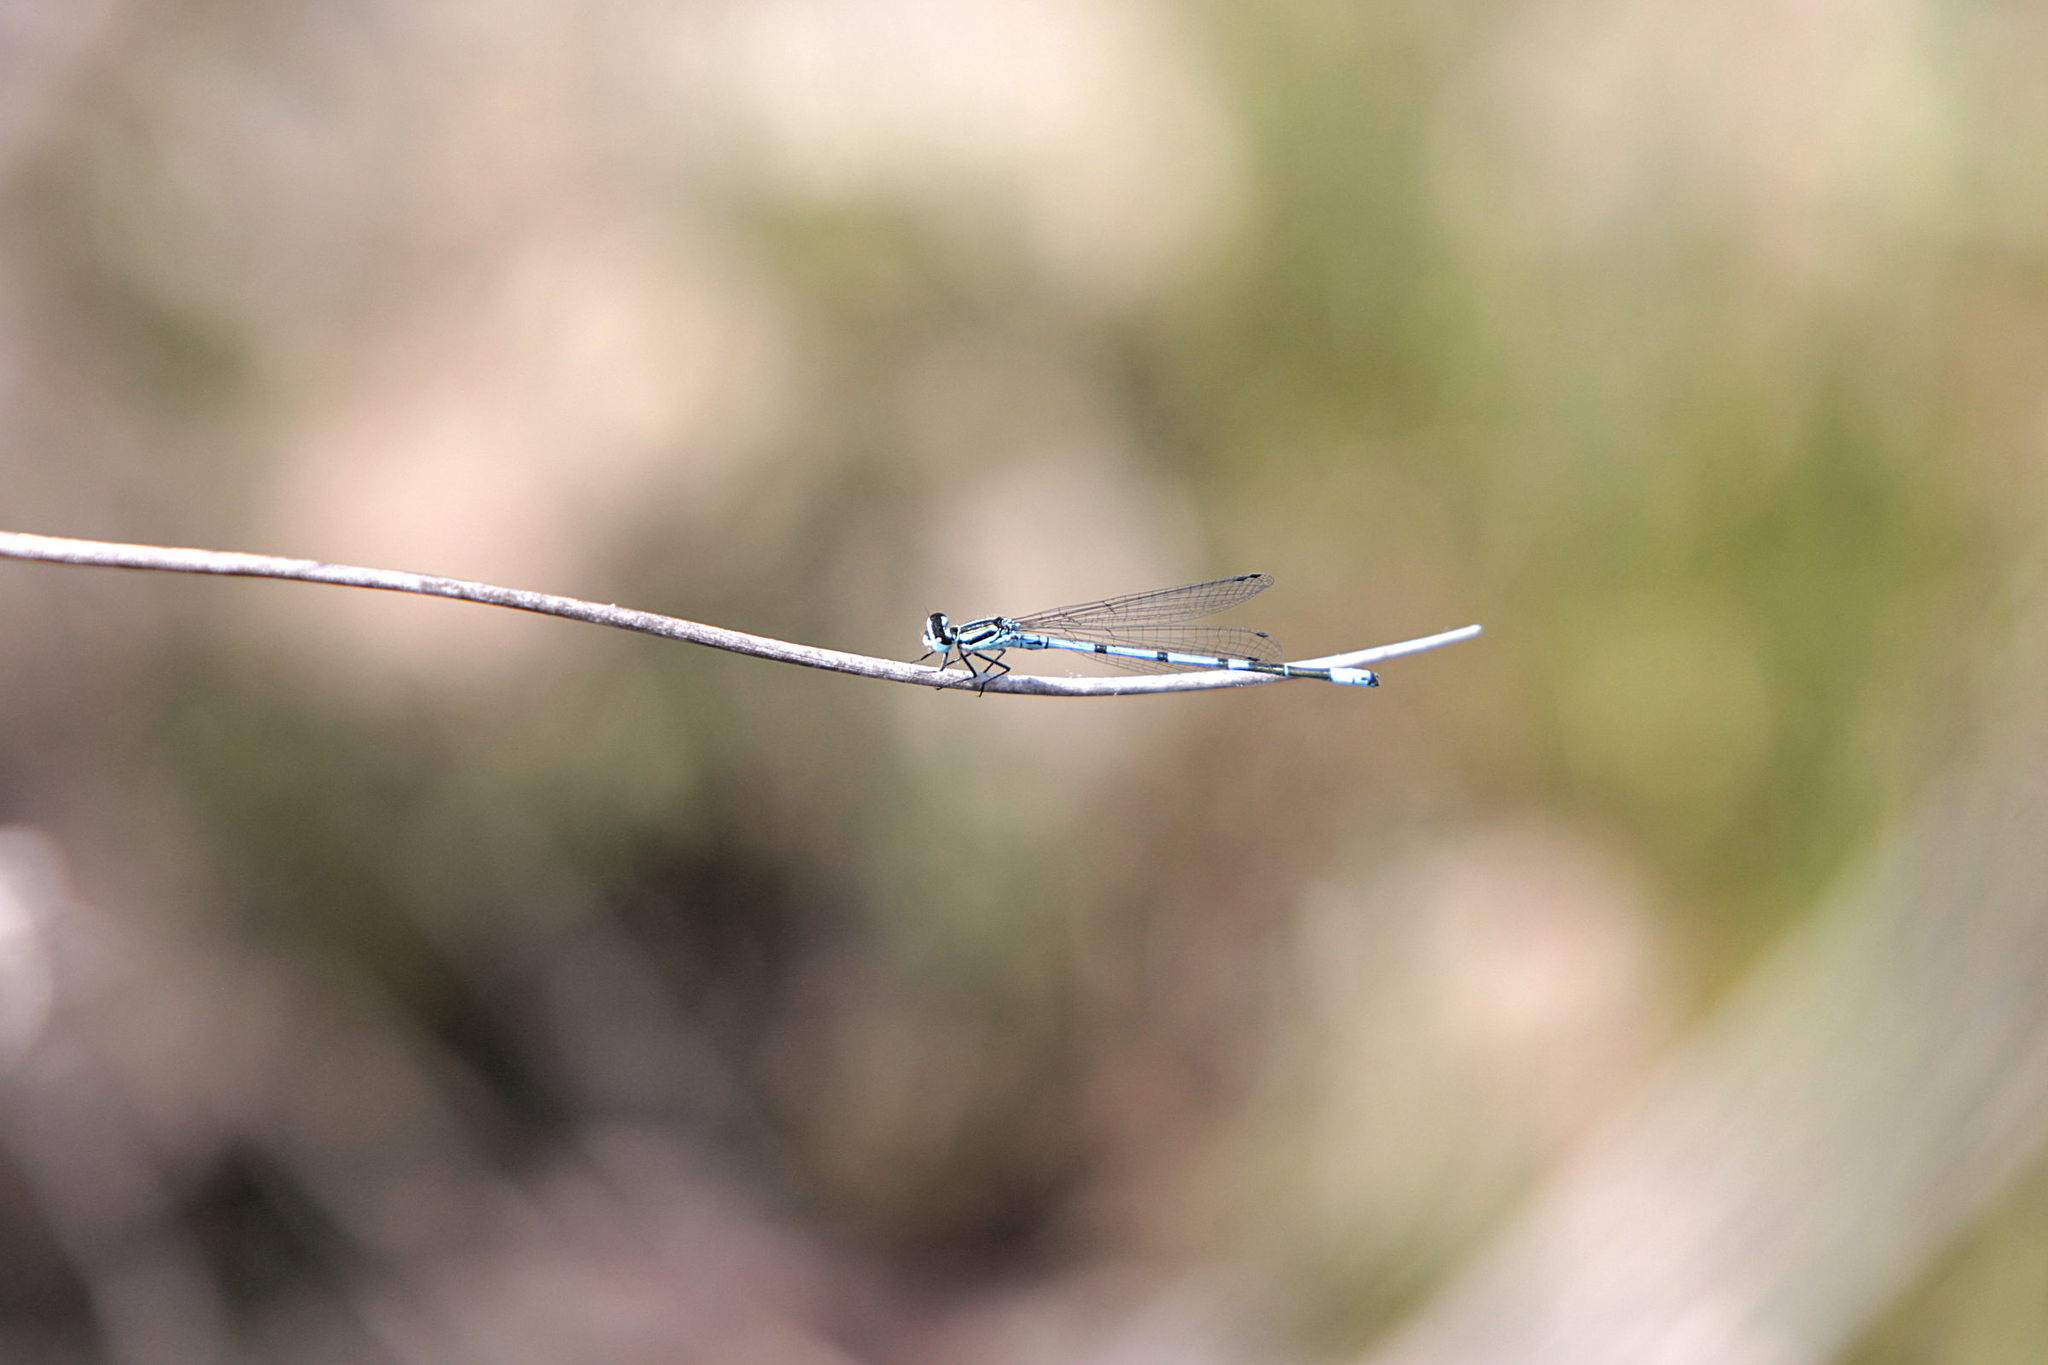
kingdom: Animalia
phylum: Arthropoda
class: Insecta
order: Odonata
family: Coenagrionidae
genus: Coenagrion
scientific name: Coenagrion puella
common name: Azure damselfly
